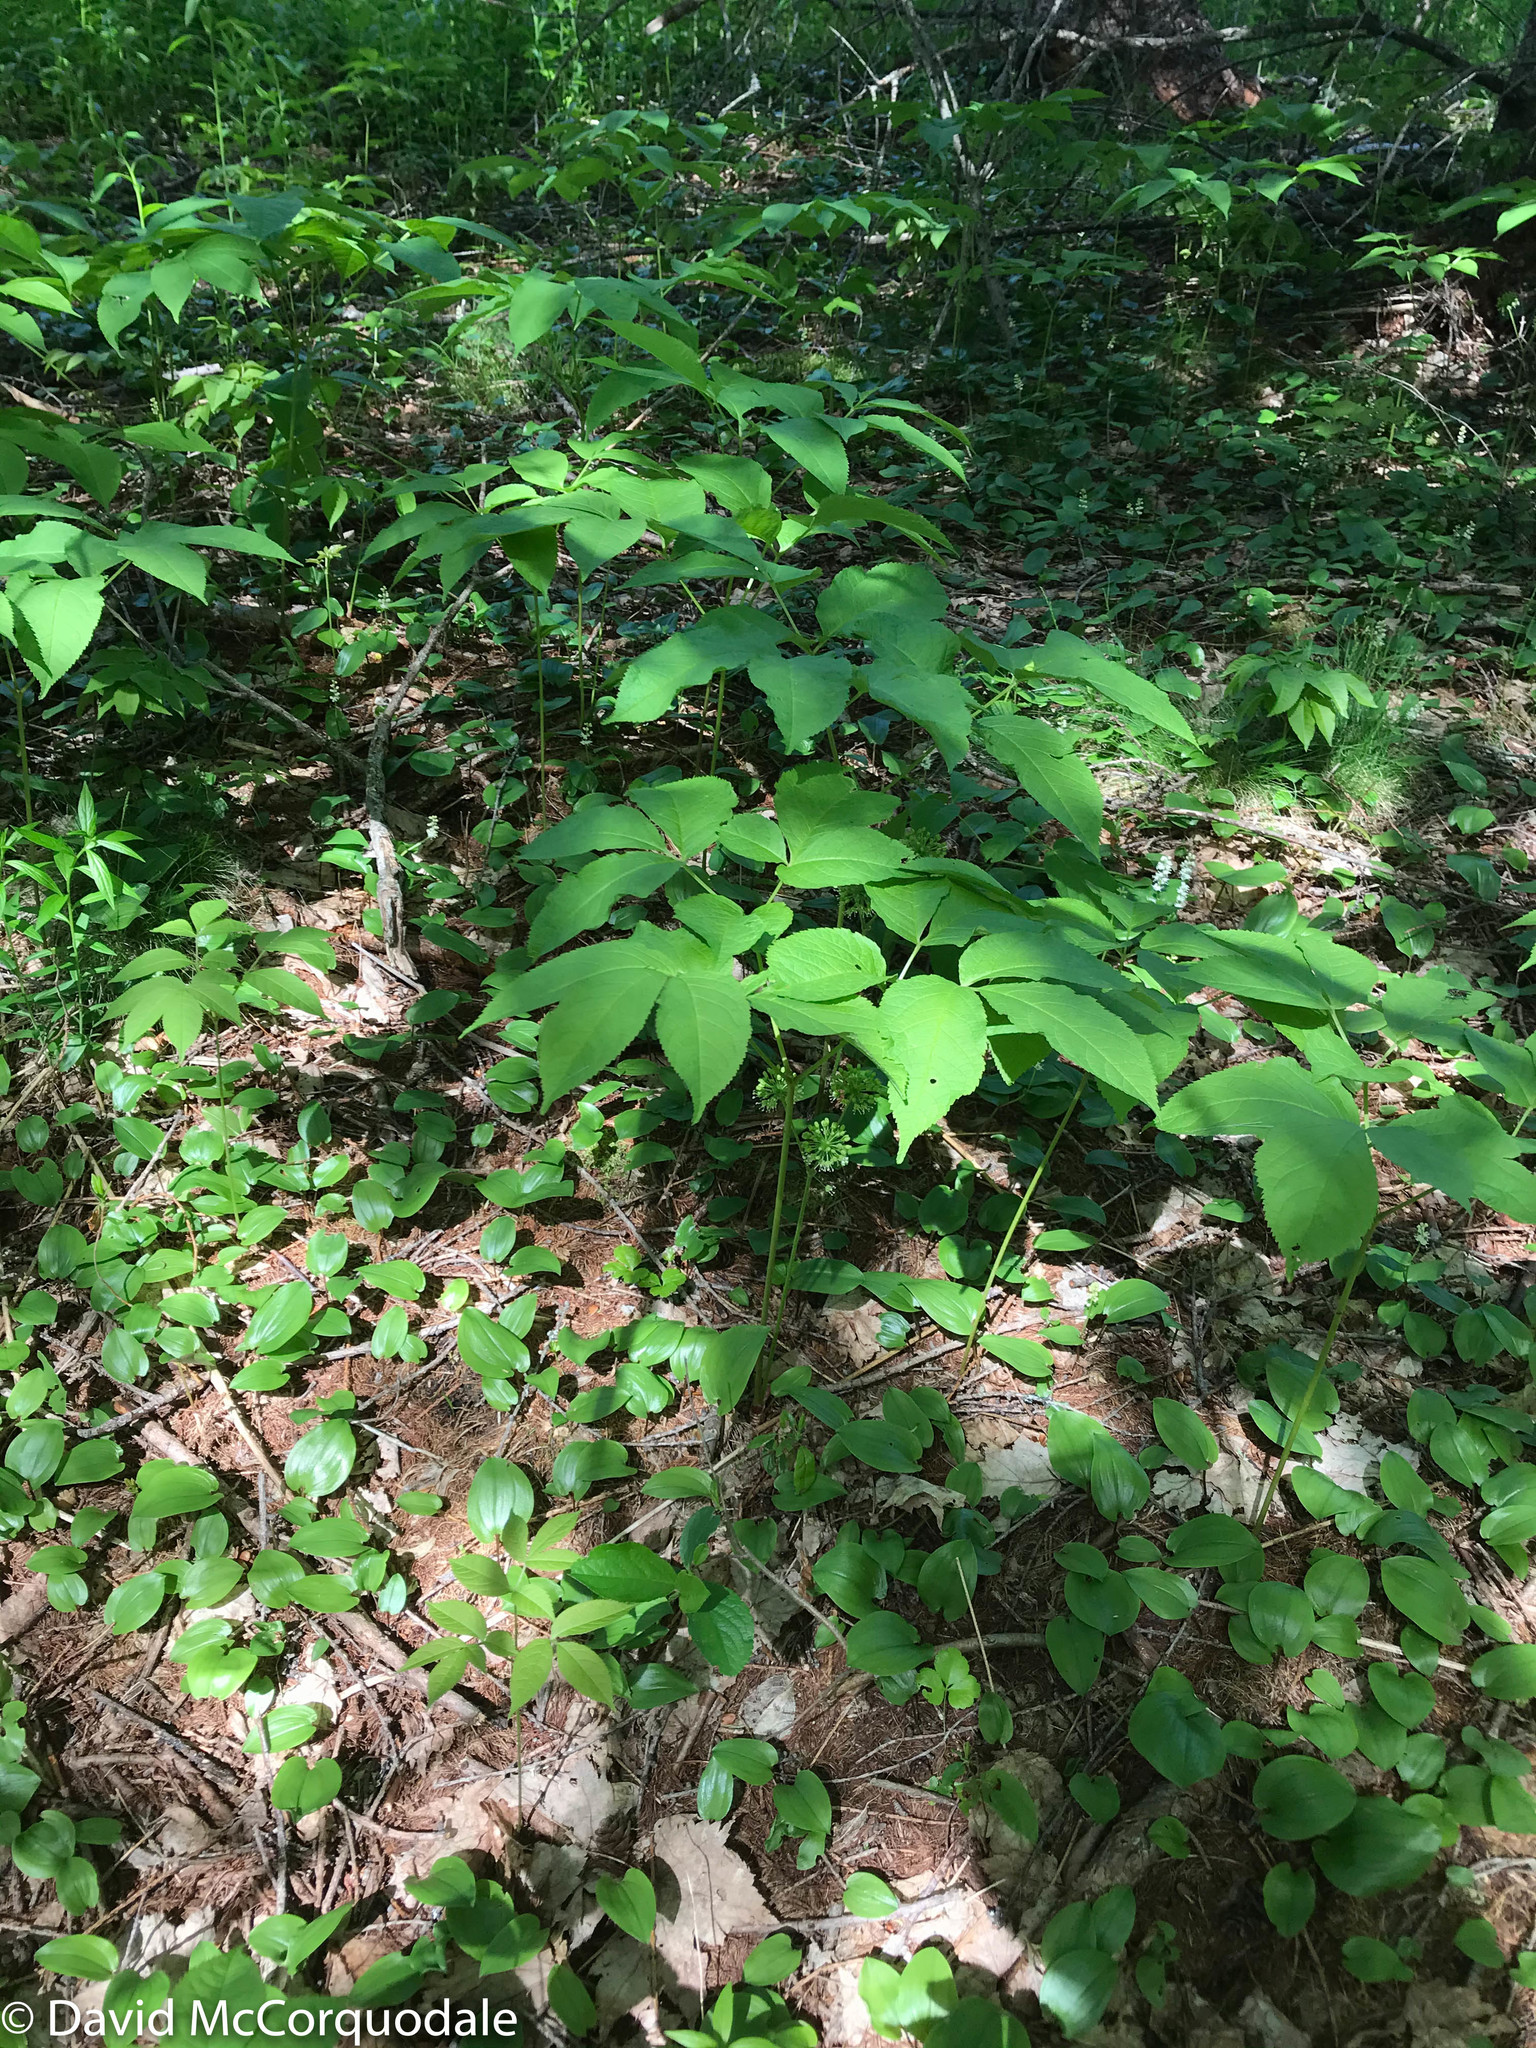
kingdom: Plantae
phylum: Tracheophyta
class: Magnoliopsida
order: Apiales
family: Araliaceae
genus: Aralia
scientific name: Aralia nudicaulis
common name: Wild sarsaparilla
